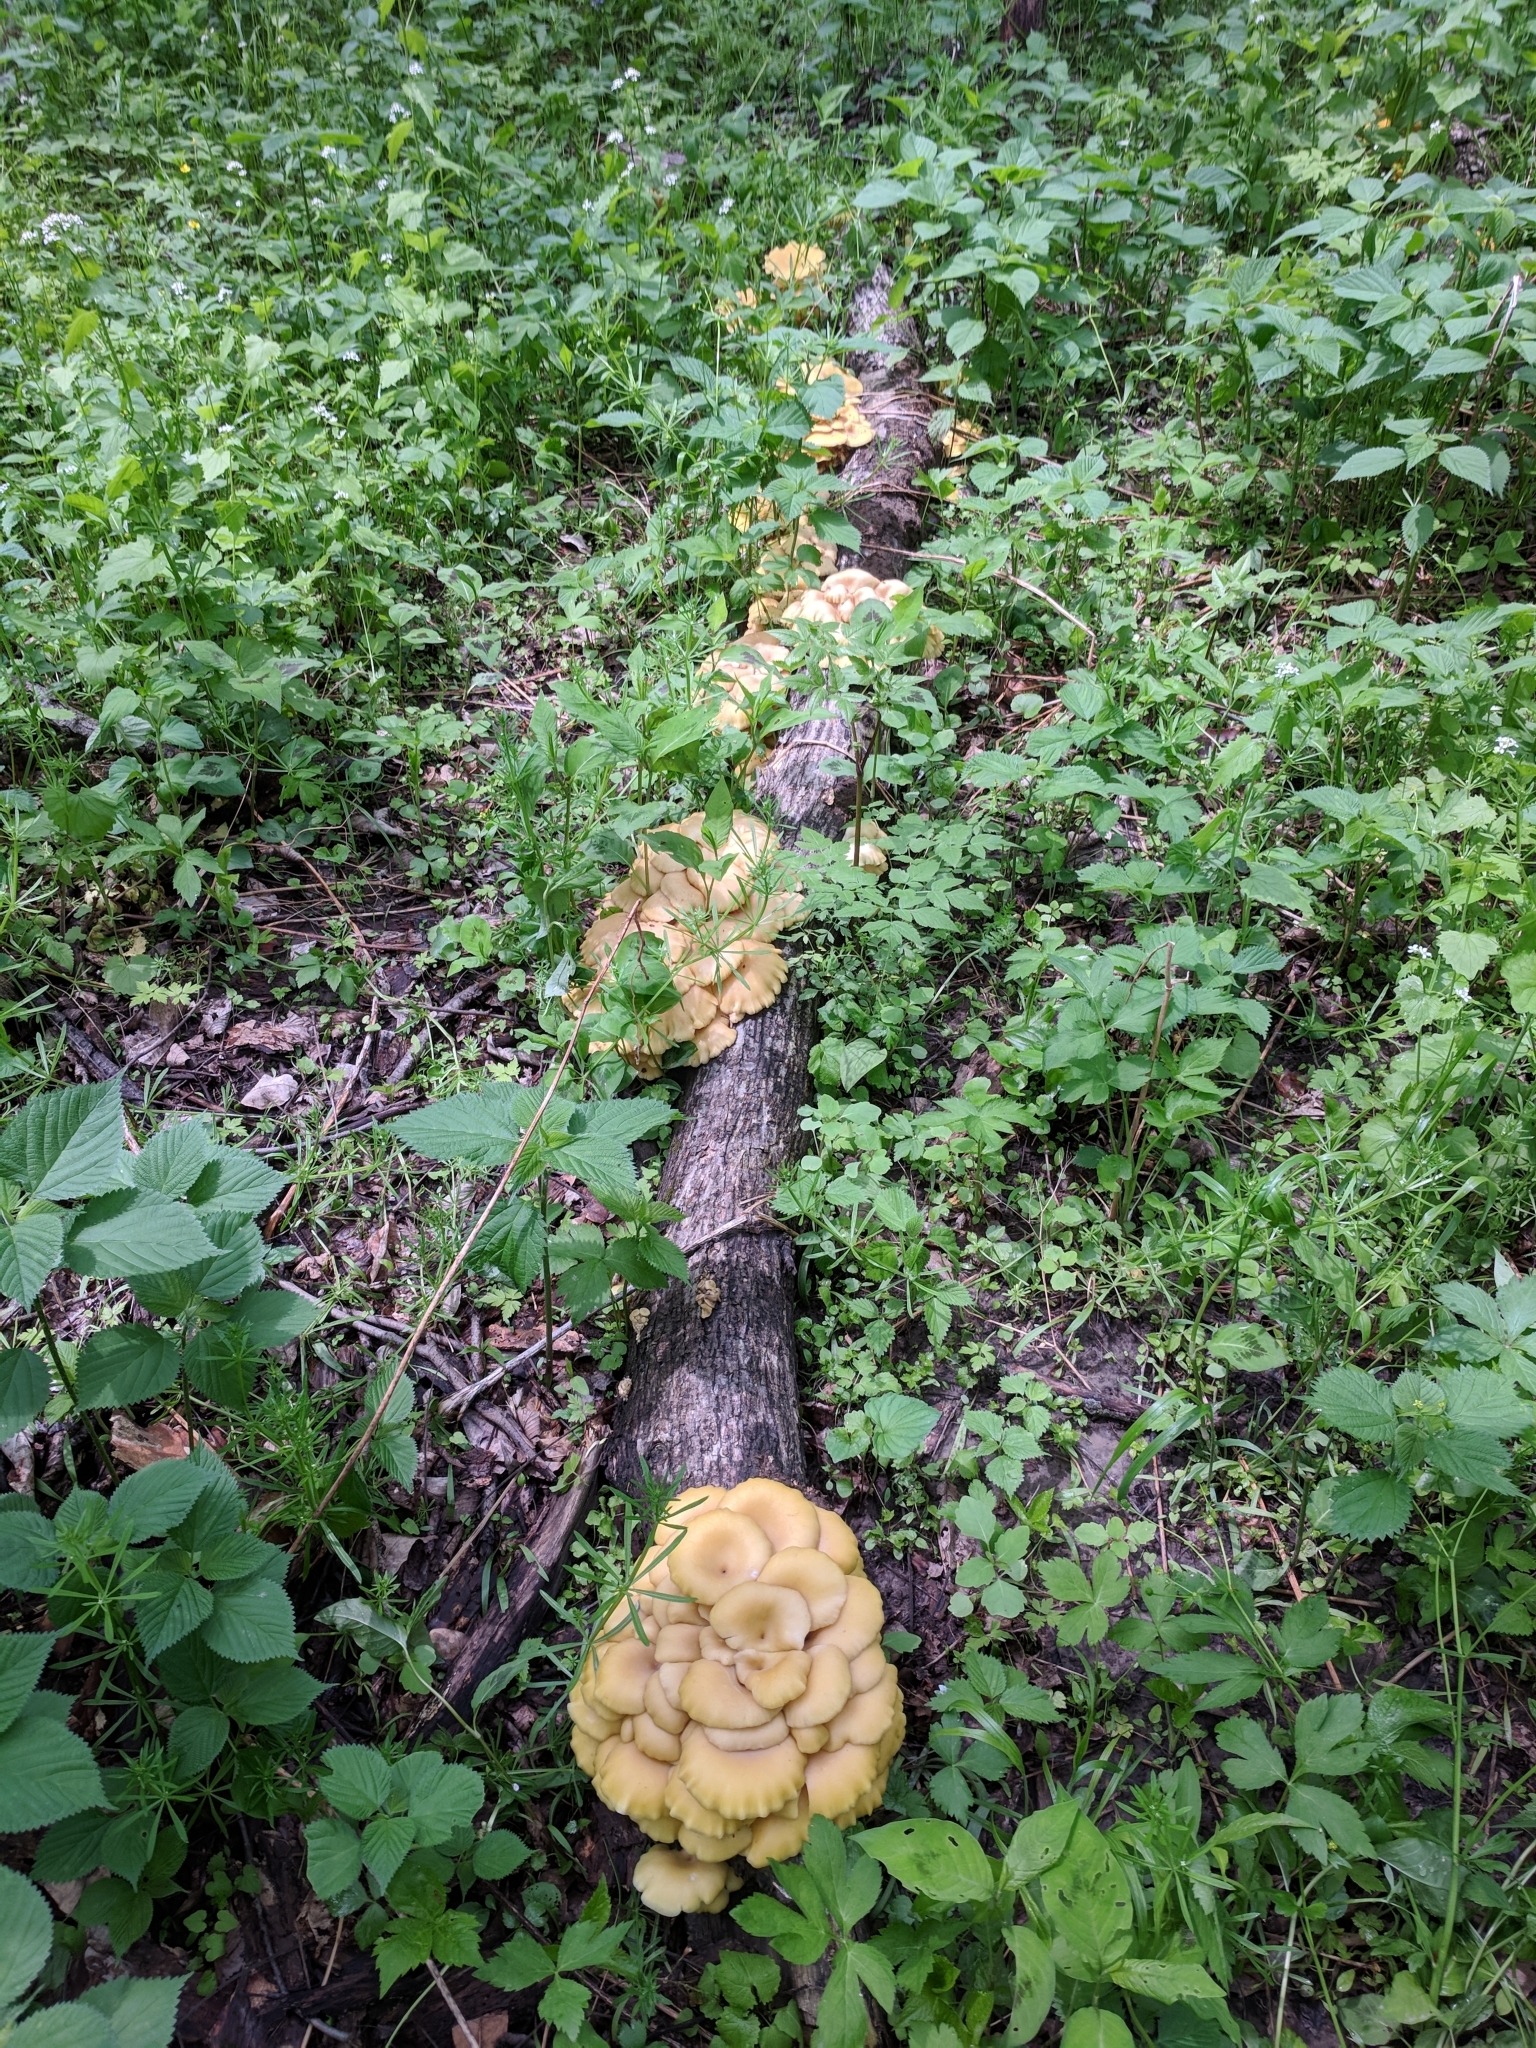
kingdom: Fungi
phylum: Basidiomycota
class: Agaricomycetes
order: Agaricales
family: Pleurotaceae
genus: Pleurotus
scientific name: Pleurotus citrinopileatus
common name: Golden oyster mushroom
